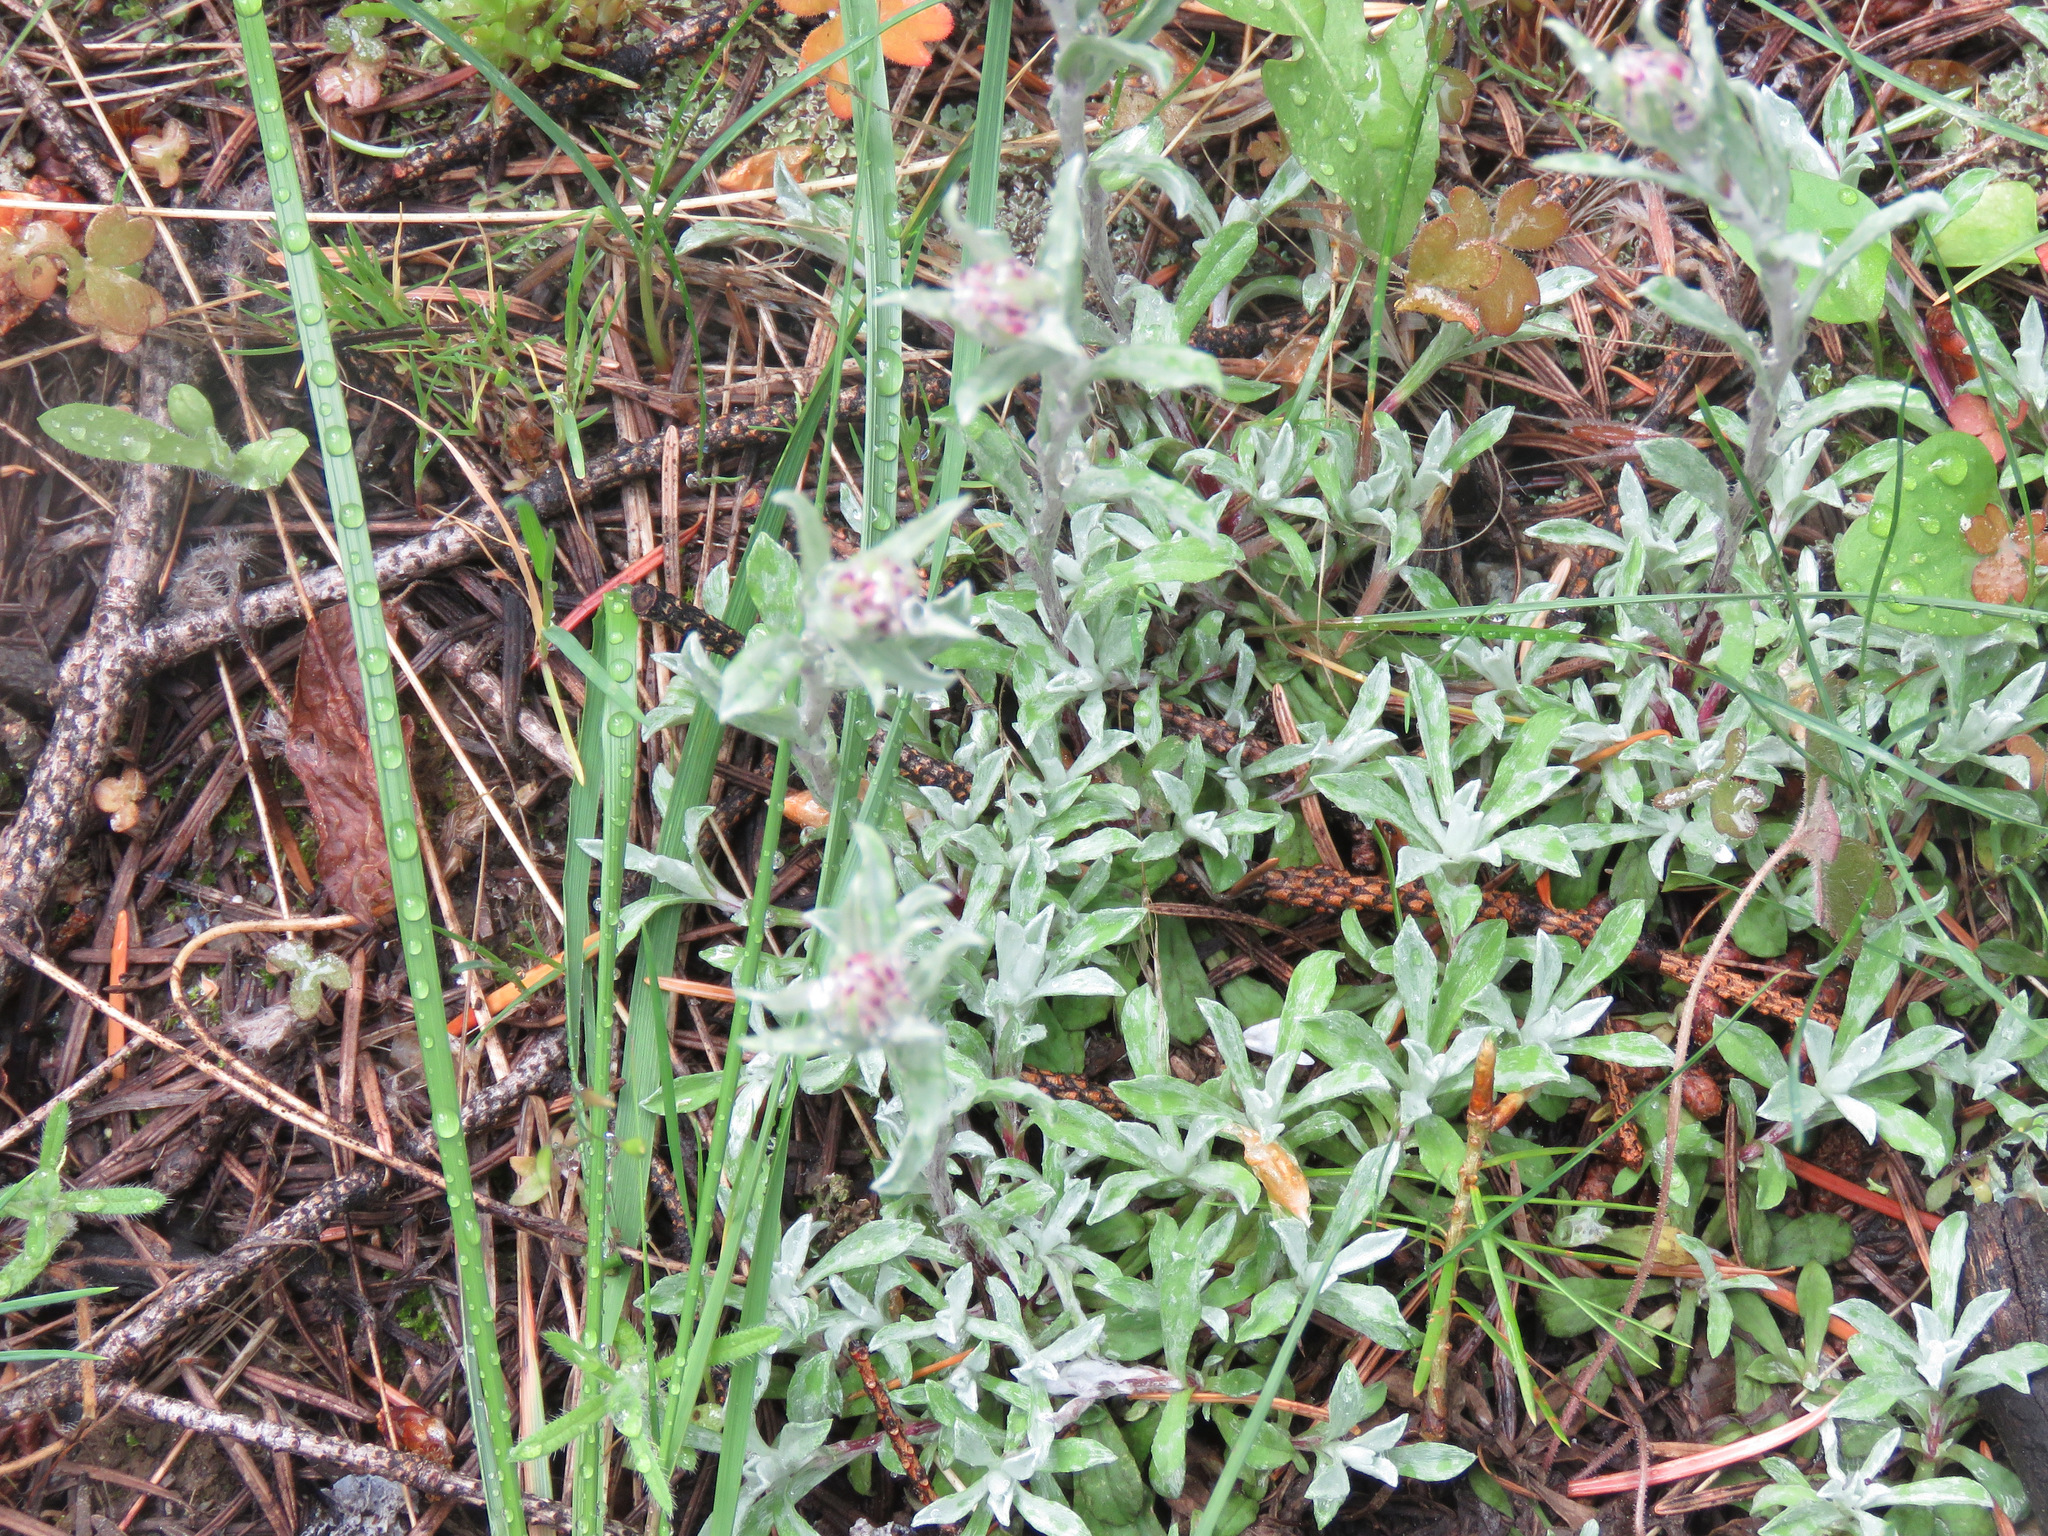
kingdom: Plantae
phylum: Tracheophyta
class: Magnoliopsida
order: Asterales
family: Asteraceae
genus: Antennaria
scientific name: Antennaria rosea
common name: Rosy pussytoes
